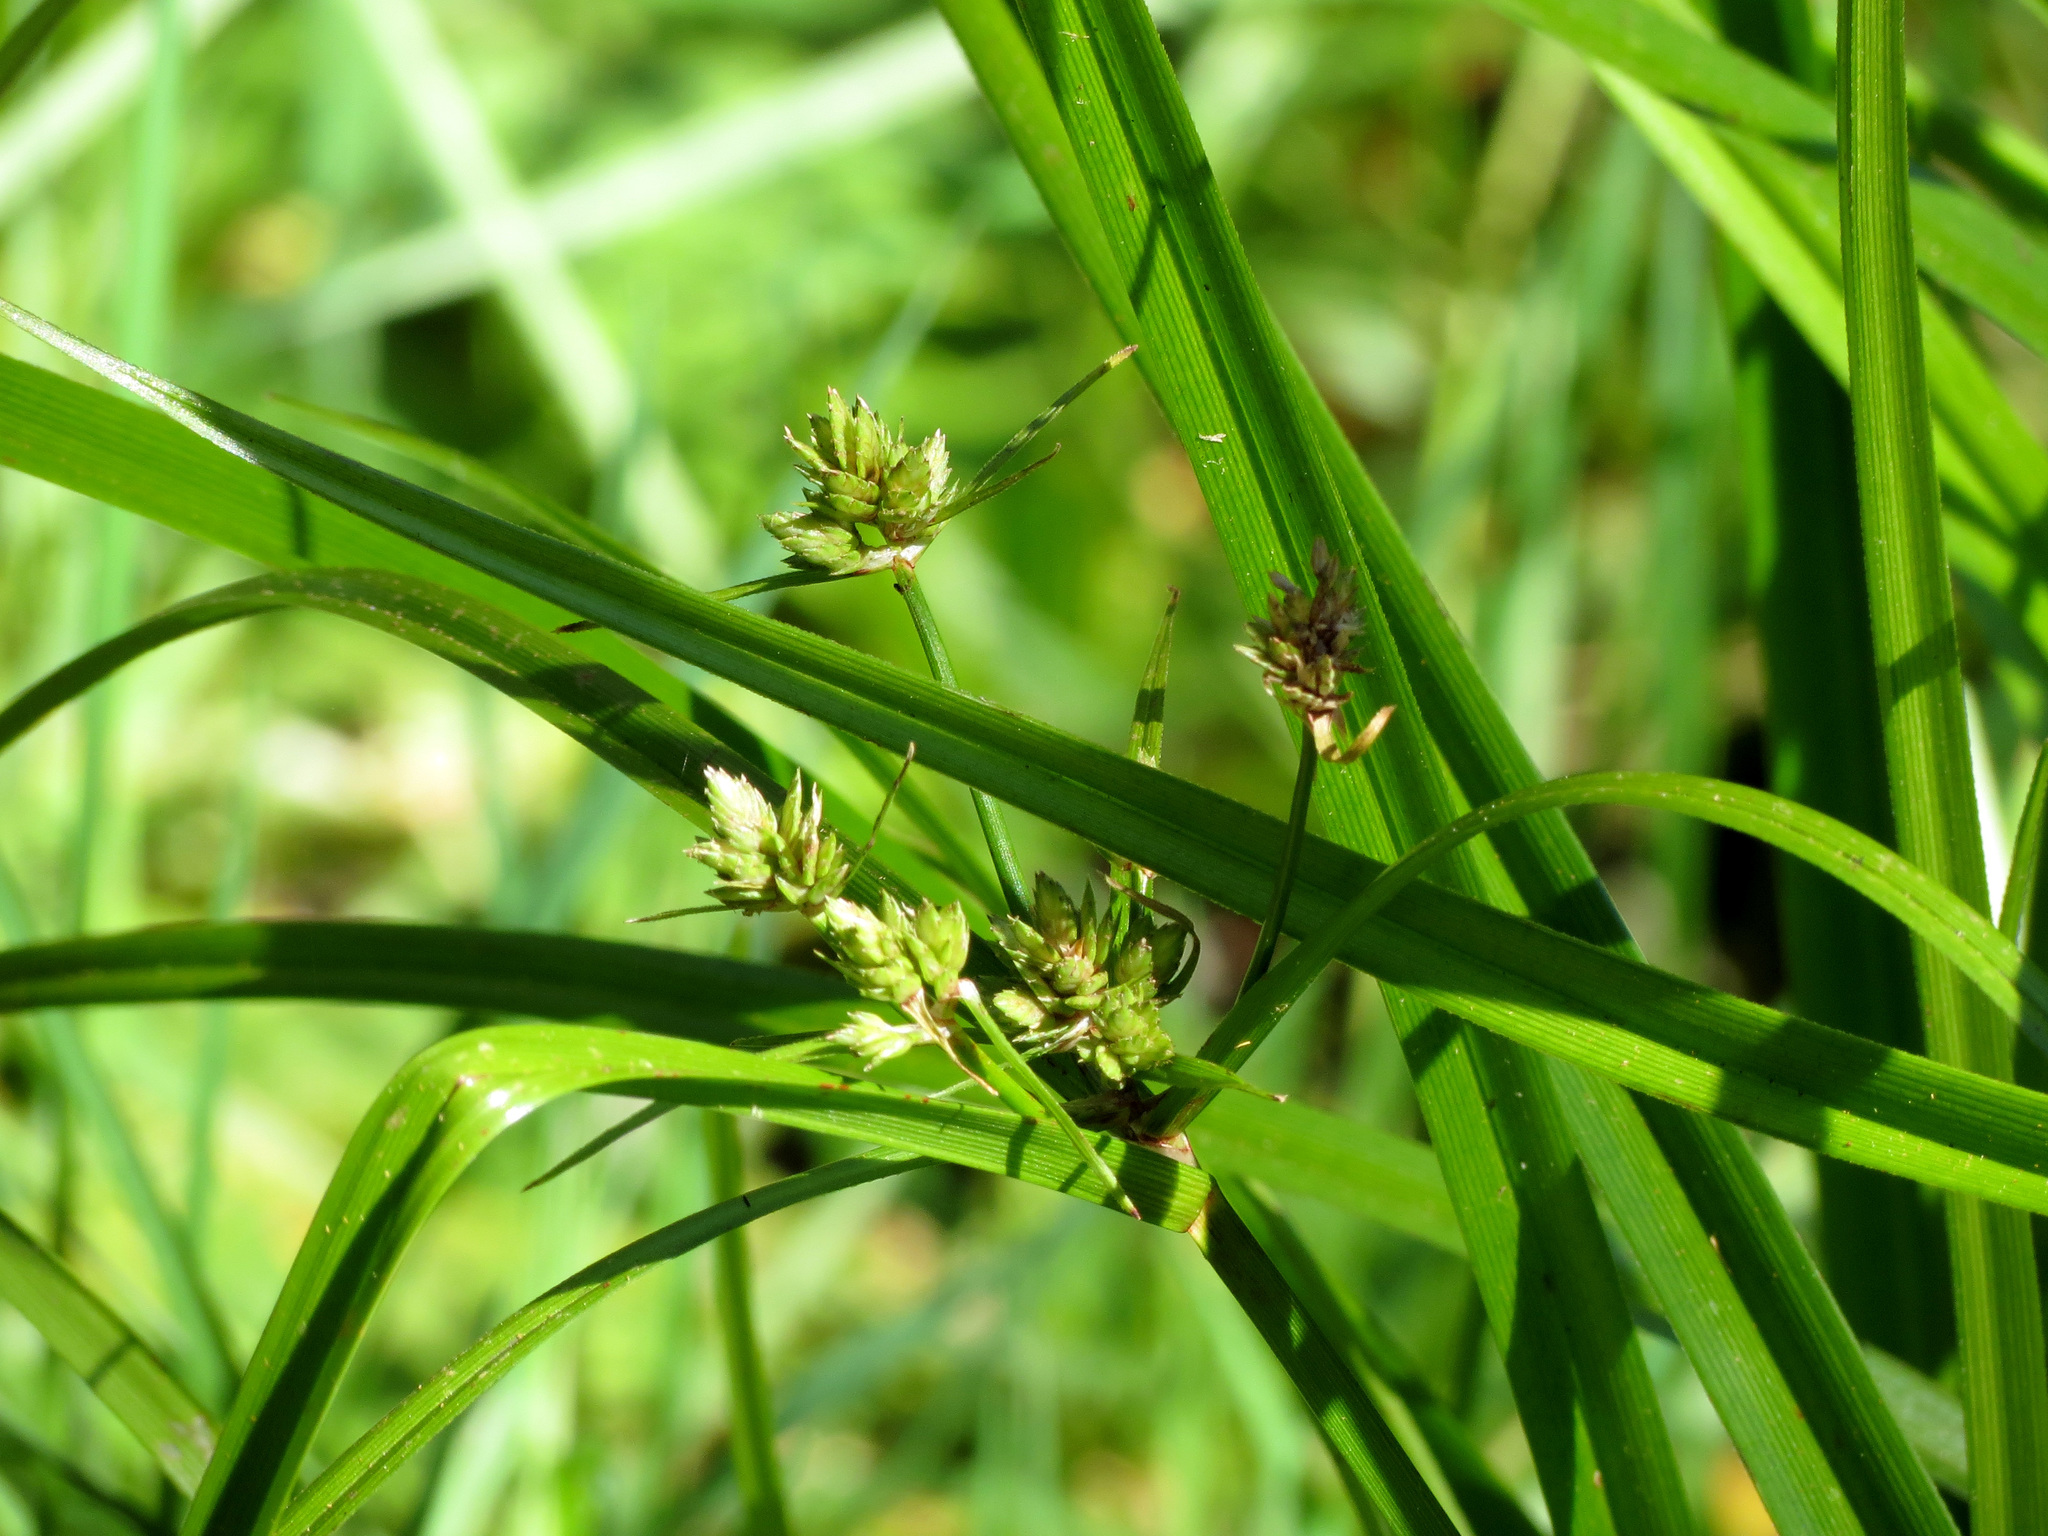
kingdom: Plantae
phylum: Tracheophyta
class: Liliopsida
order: Poales
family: Cyperaceae
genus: Cyperus
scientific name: Cyperus eragrostis
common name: Tall flatsedge
